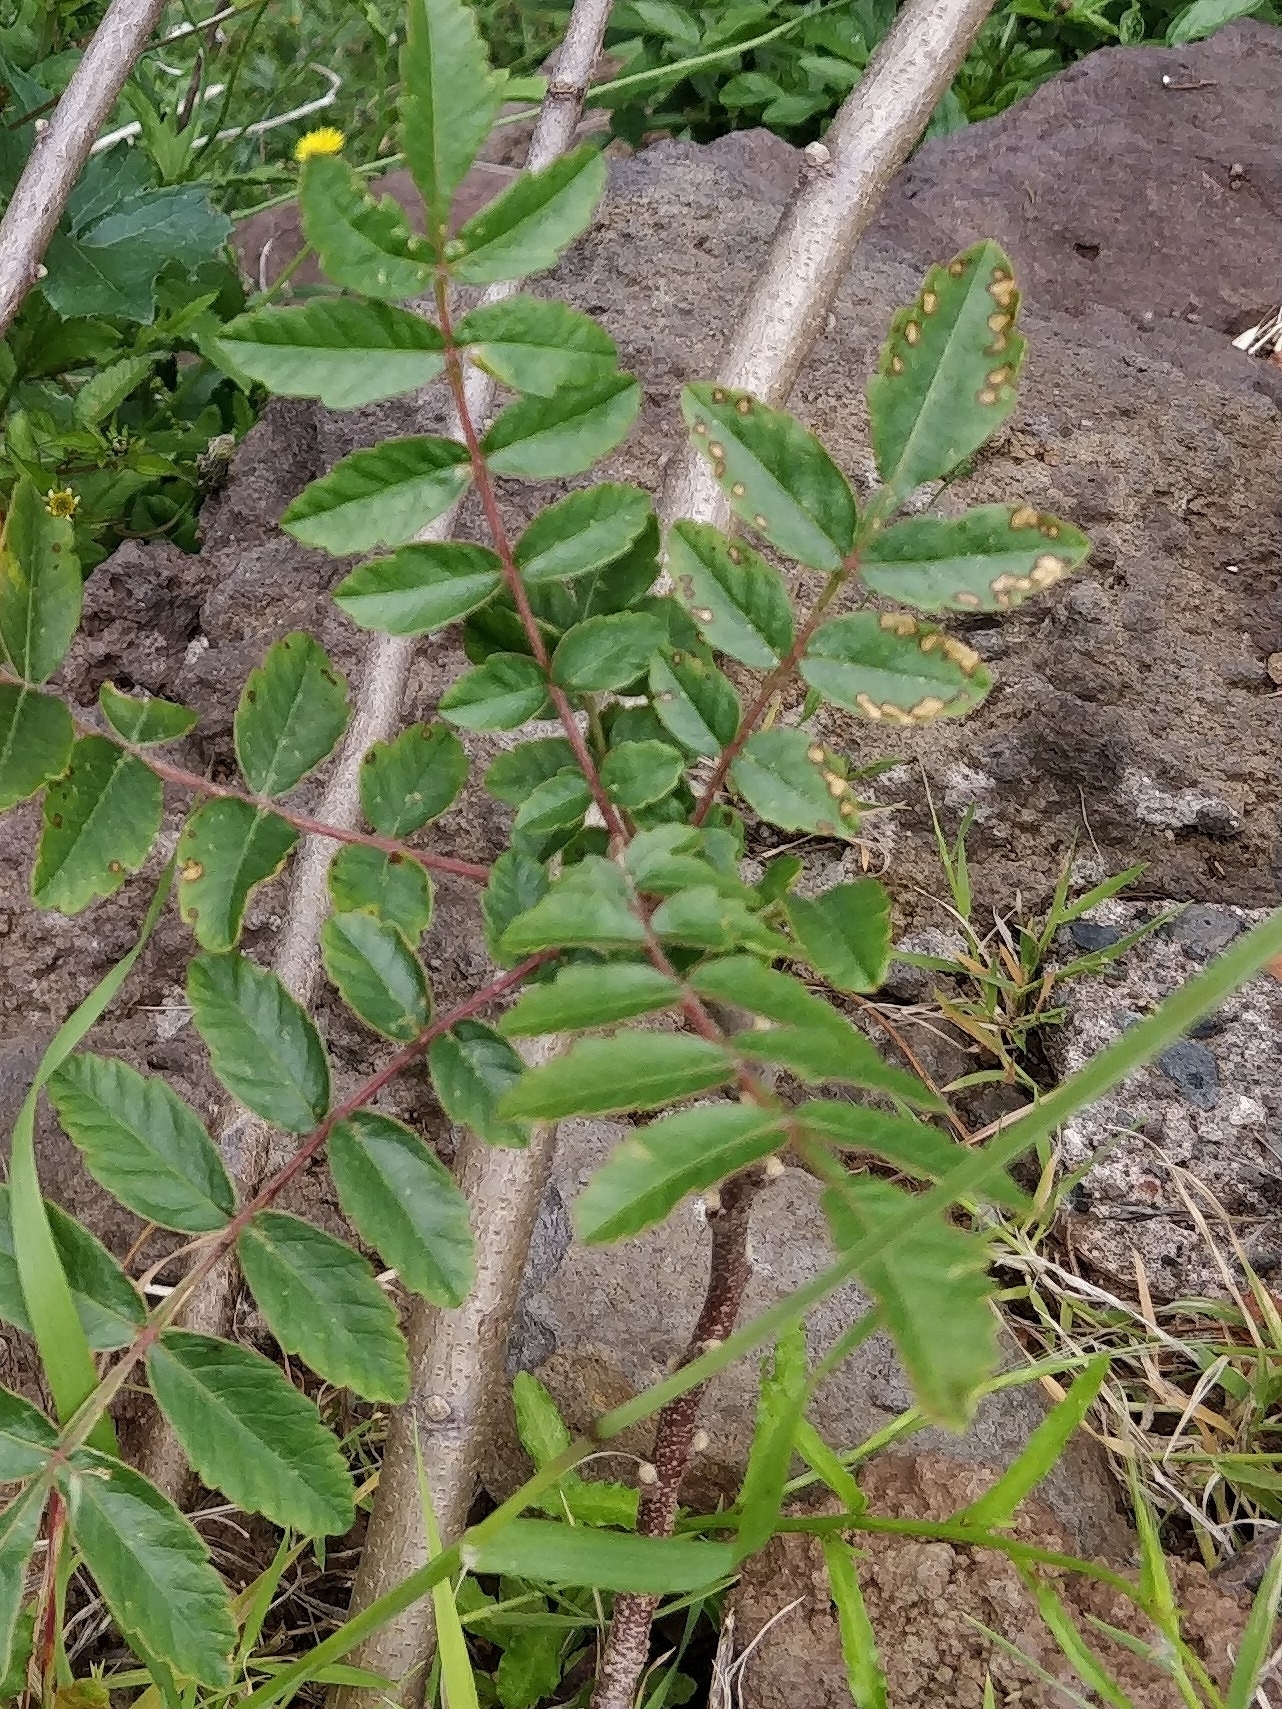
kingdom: Plantae
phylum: Tracheophyta
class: Magnoliopsida
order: Sapindales
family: Anacardiaceae
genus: Rhus
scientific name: Rhus coriaria
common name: Tanner's sumach
